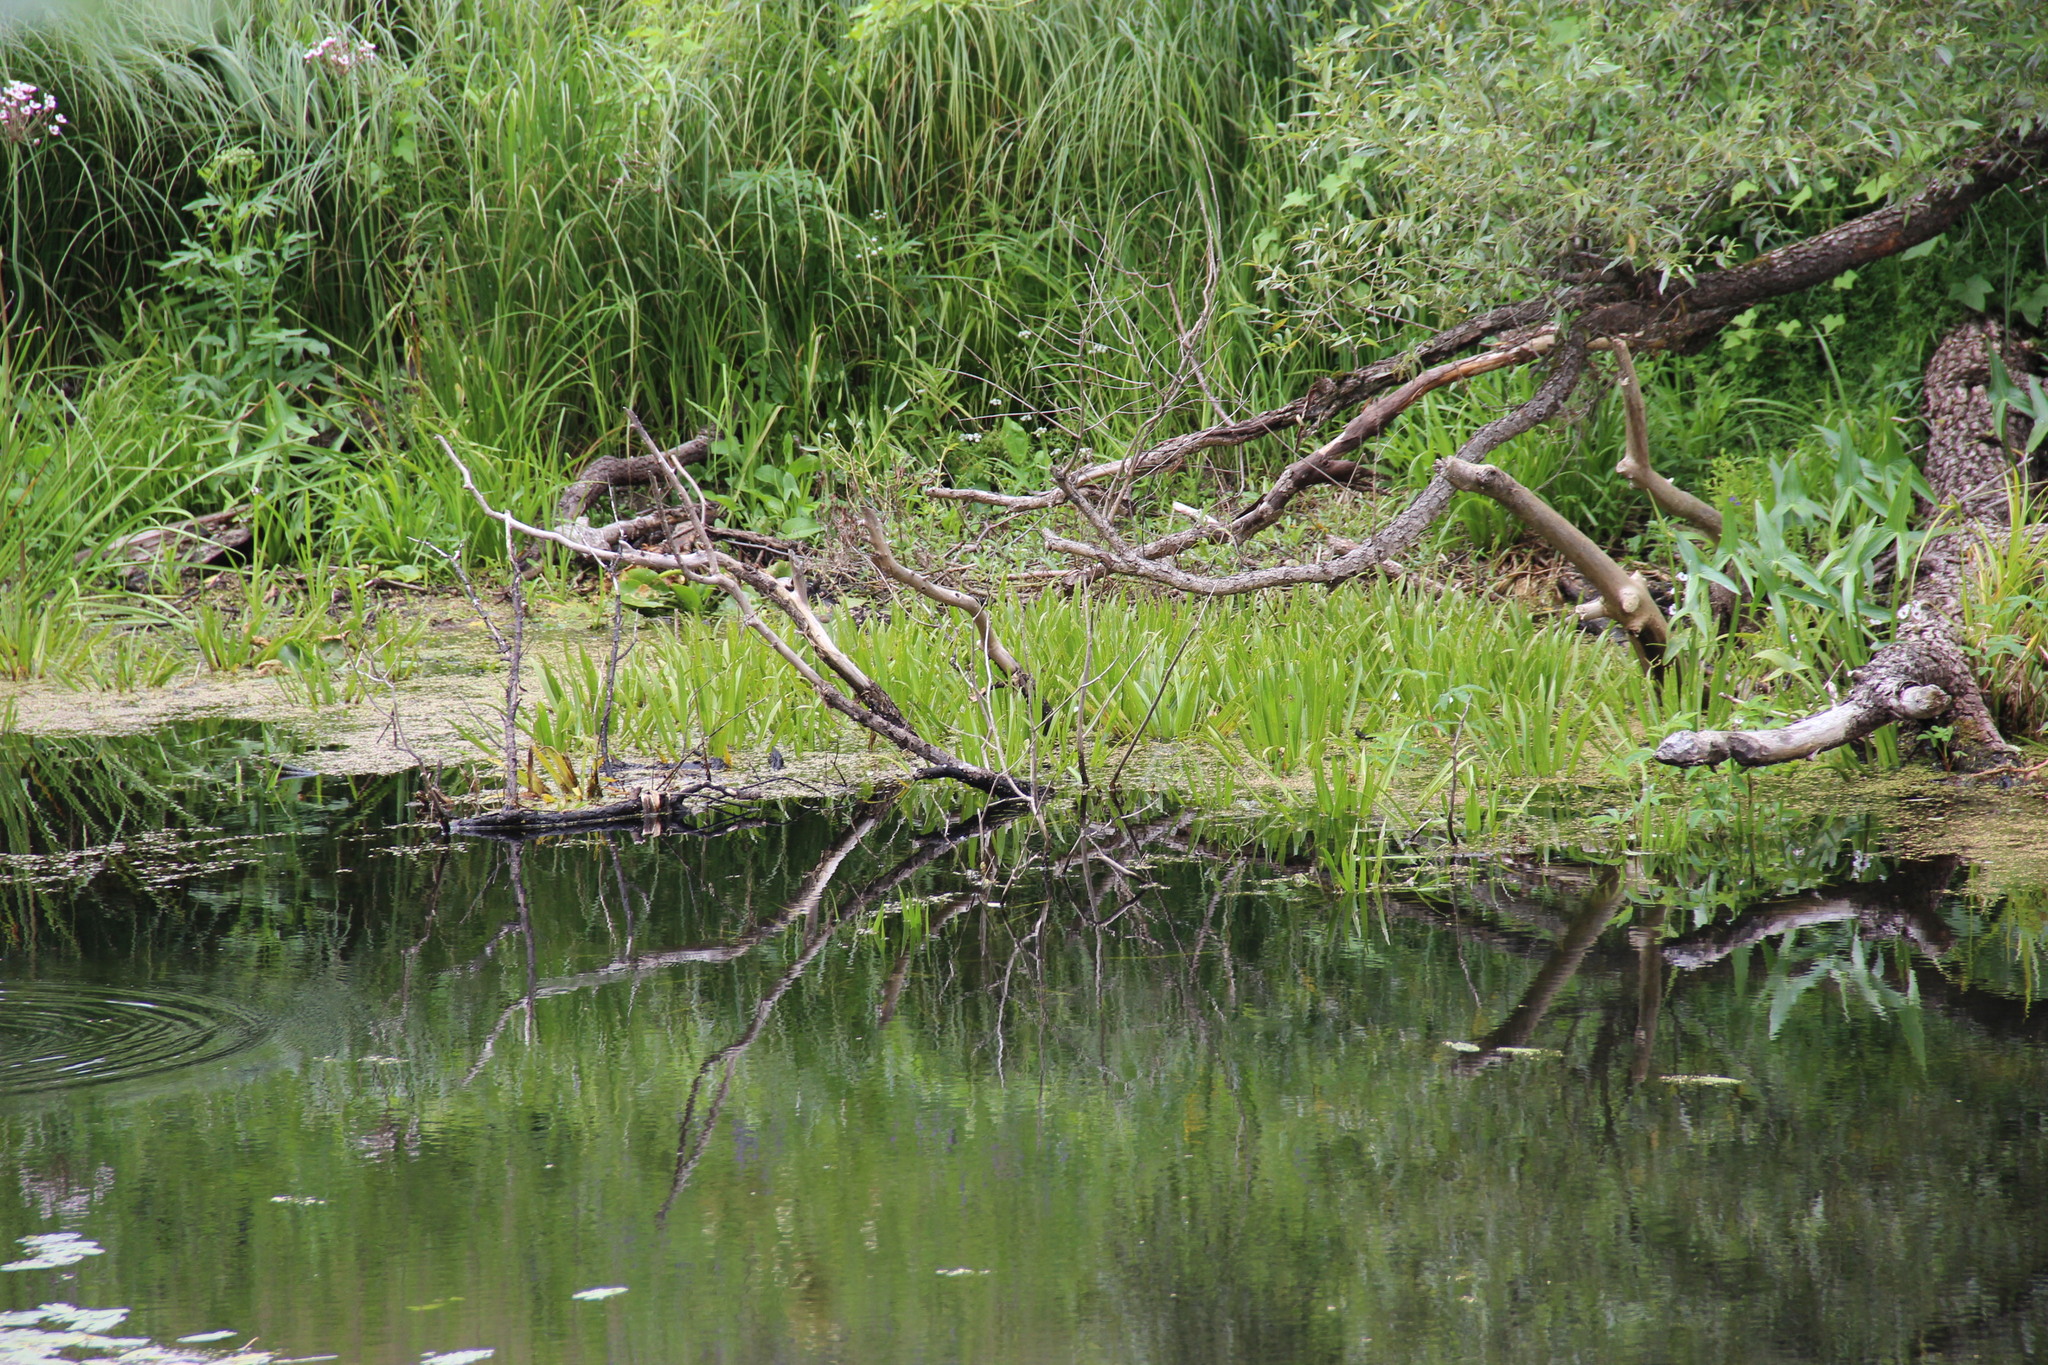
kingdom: Plantae
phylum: Tracheophyta
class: Liliopsida
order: Alismatales
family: Hydrocharitaceae
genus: Stratiotes
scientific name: Stratiotes aloides
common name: Water-soldier
